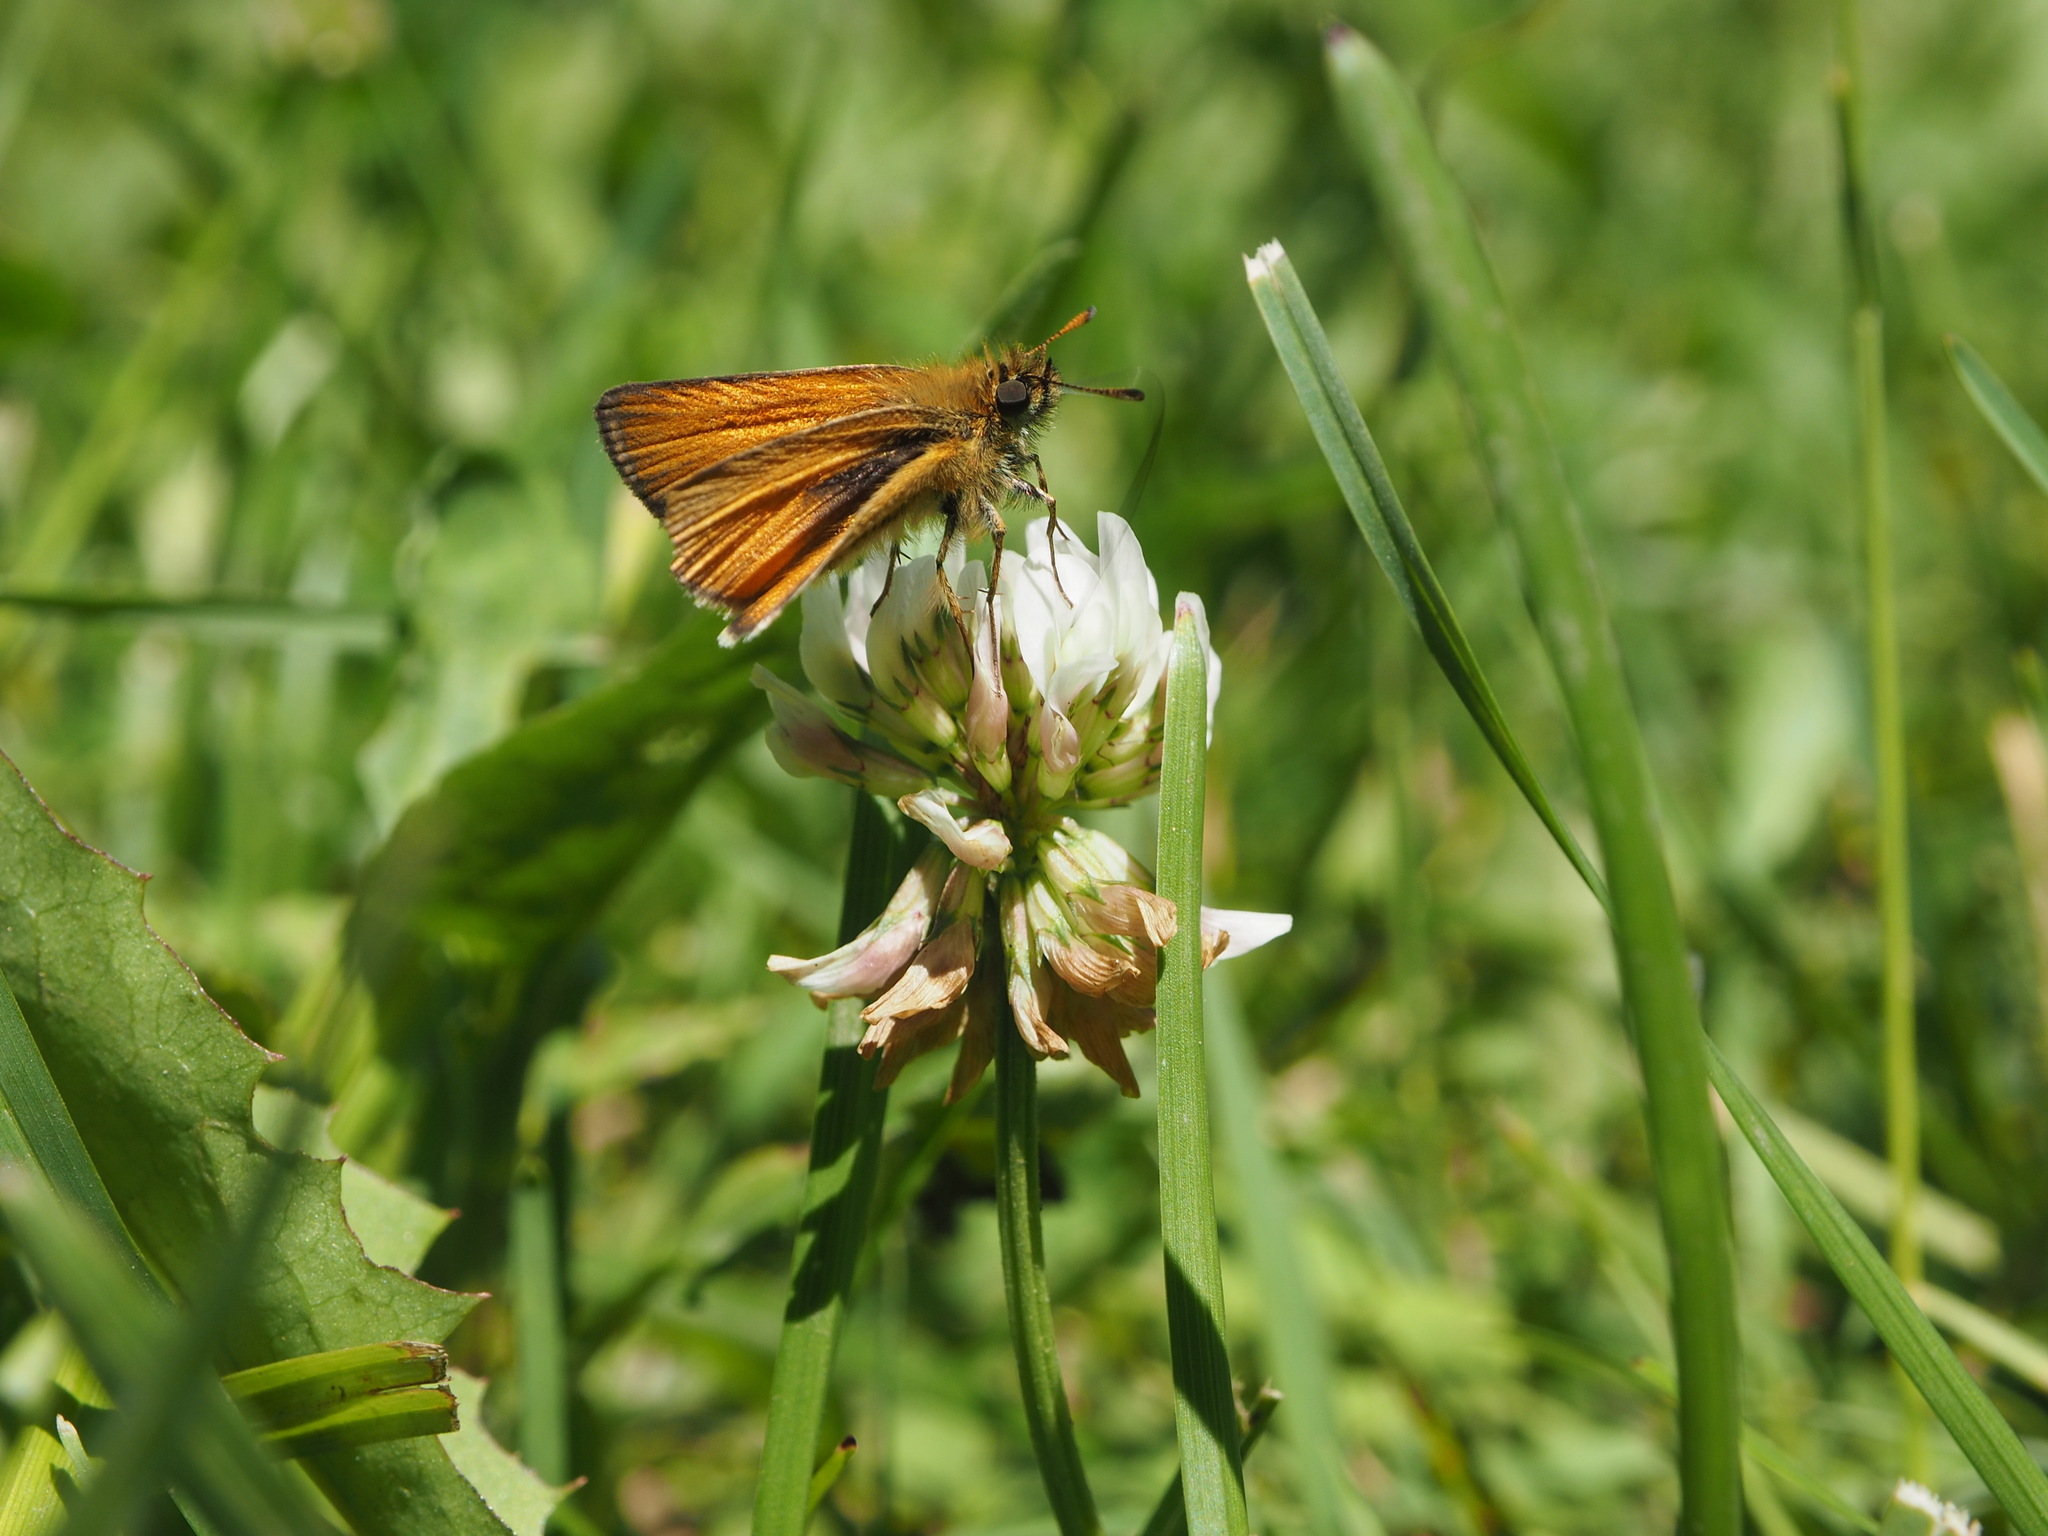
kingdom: Animalia
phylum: Arthropoda
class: Insecta
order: Lepidoptera
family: Hesperiidae
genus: Thymelicus
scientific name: Thymelicus lineola
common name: Essex skipper
